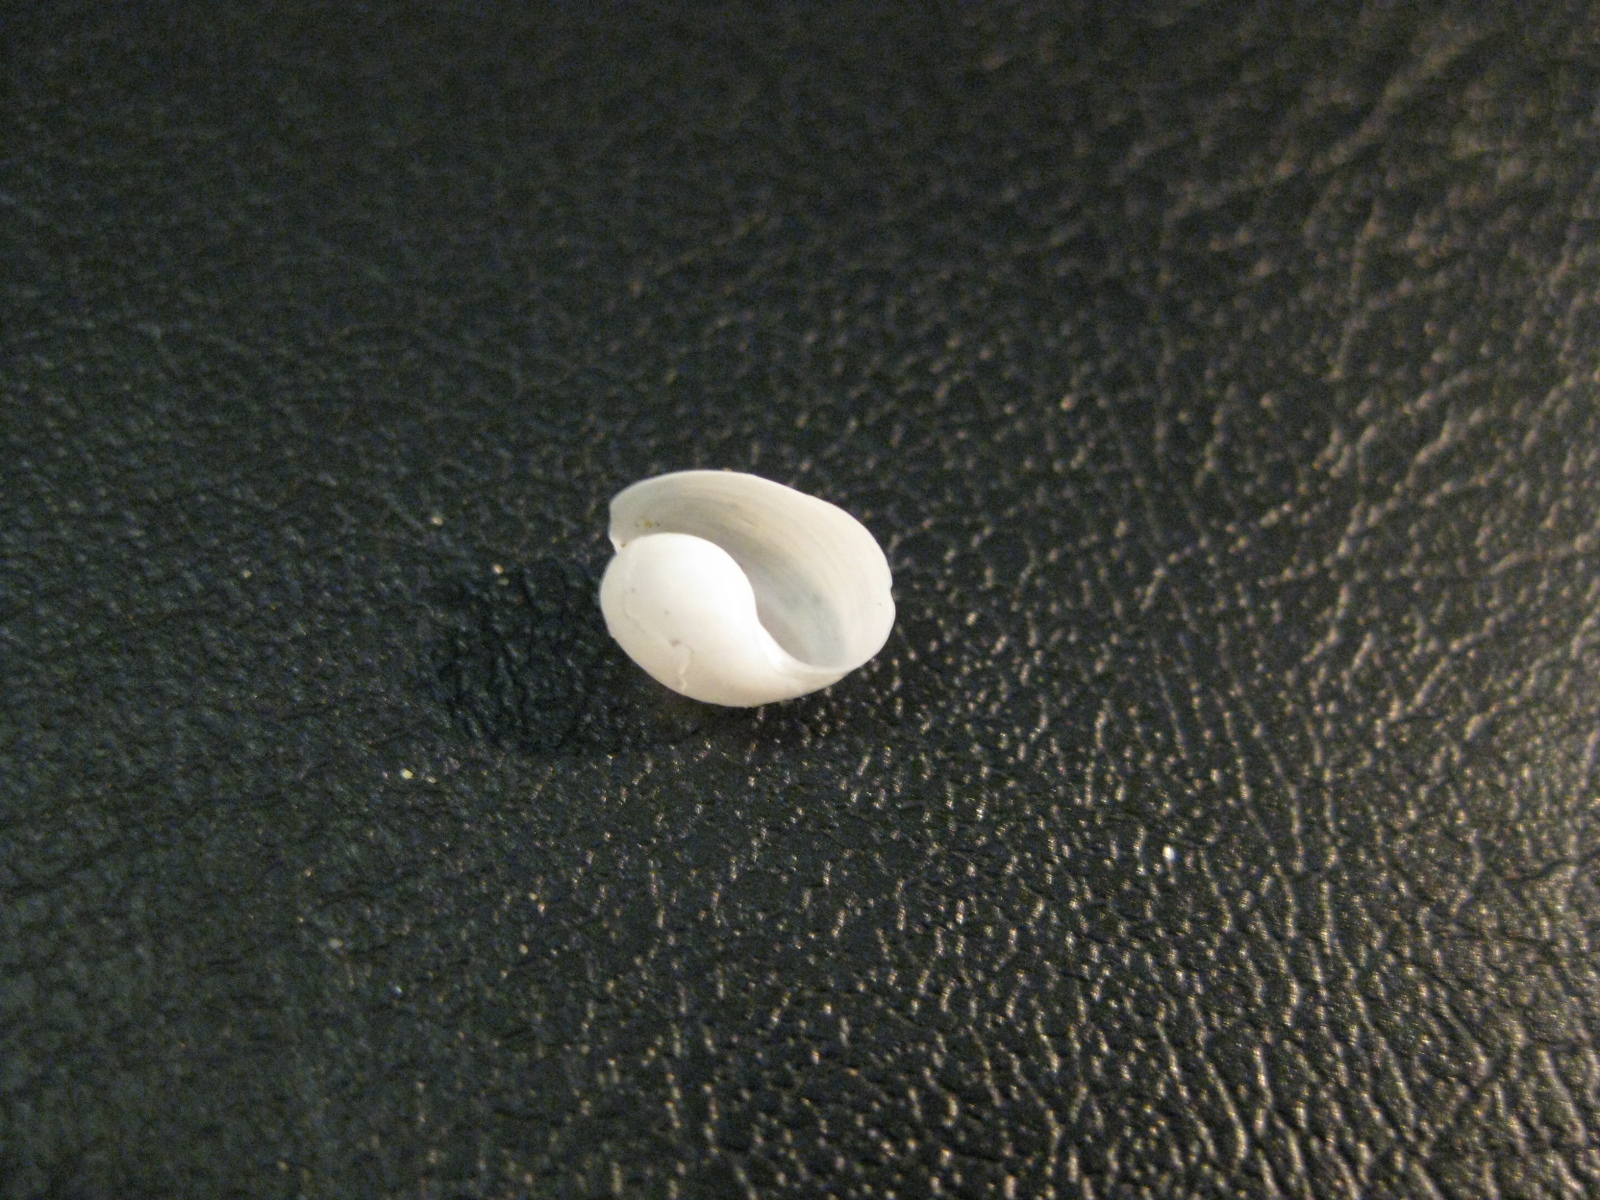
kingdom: Animalia
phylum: Mollusca
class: Gastropoda
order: Cephalaspidea
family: Haminoeidae
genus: Papawera
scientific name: Papawera zelandiae
